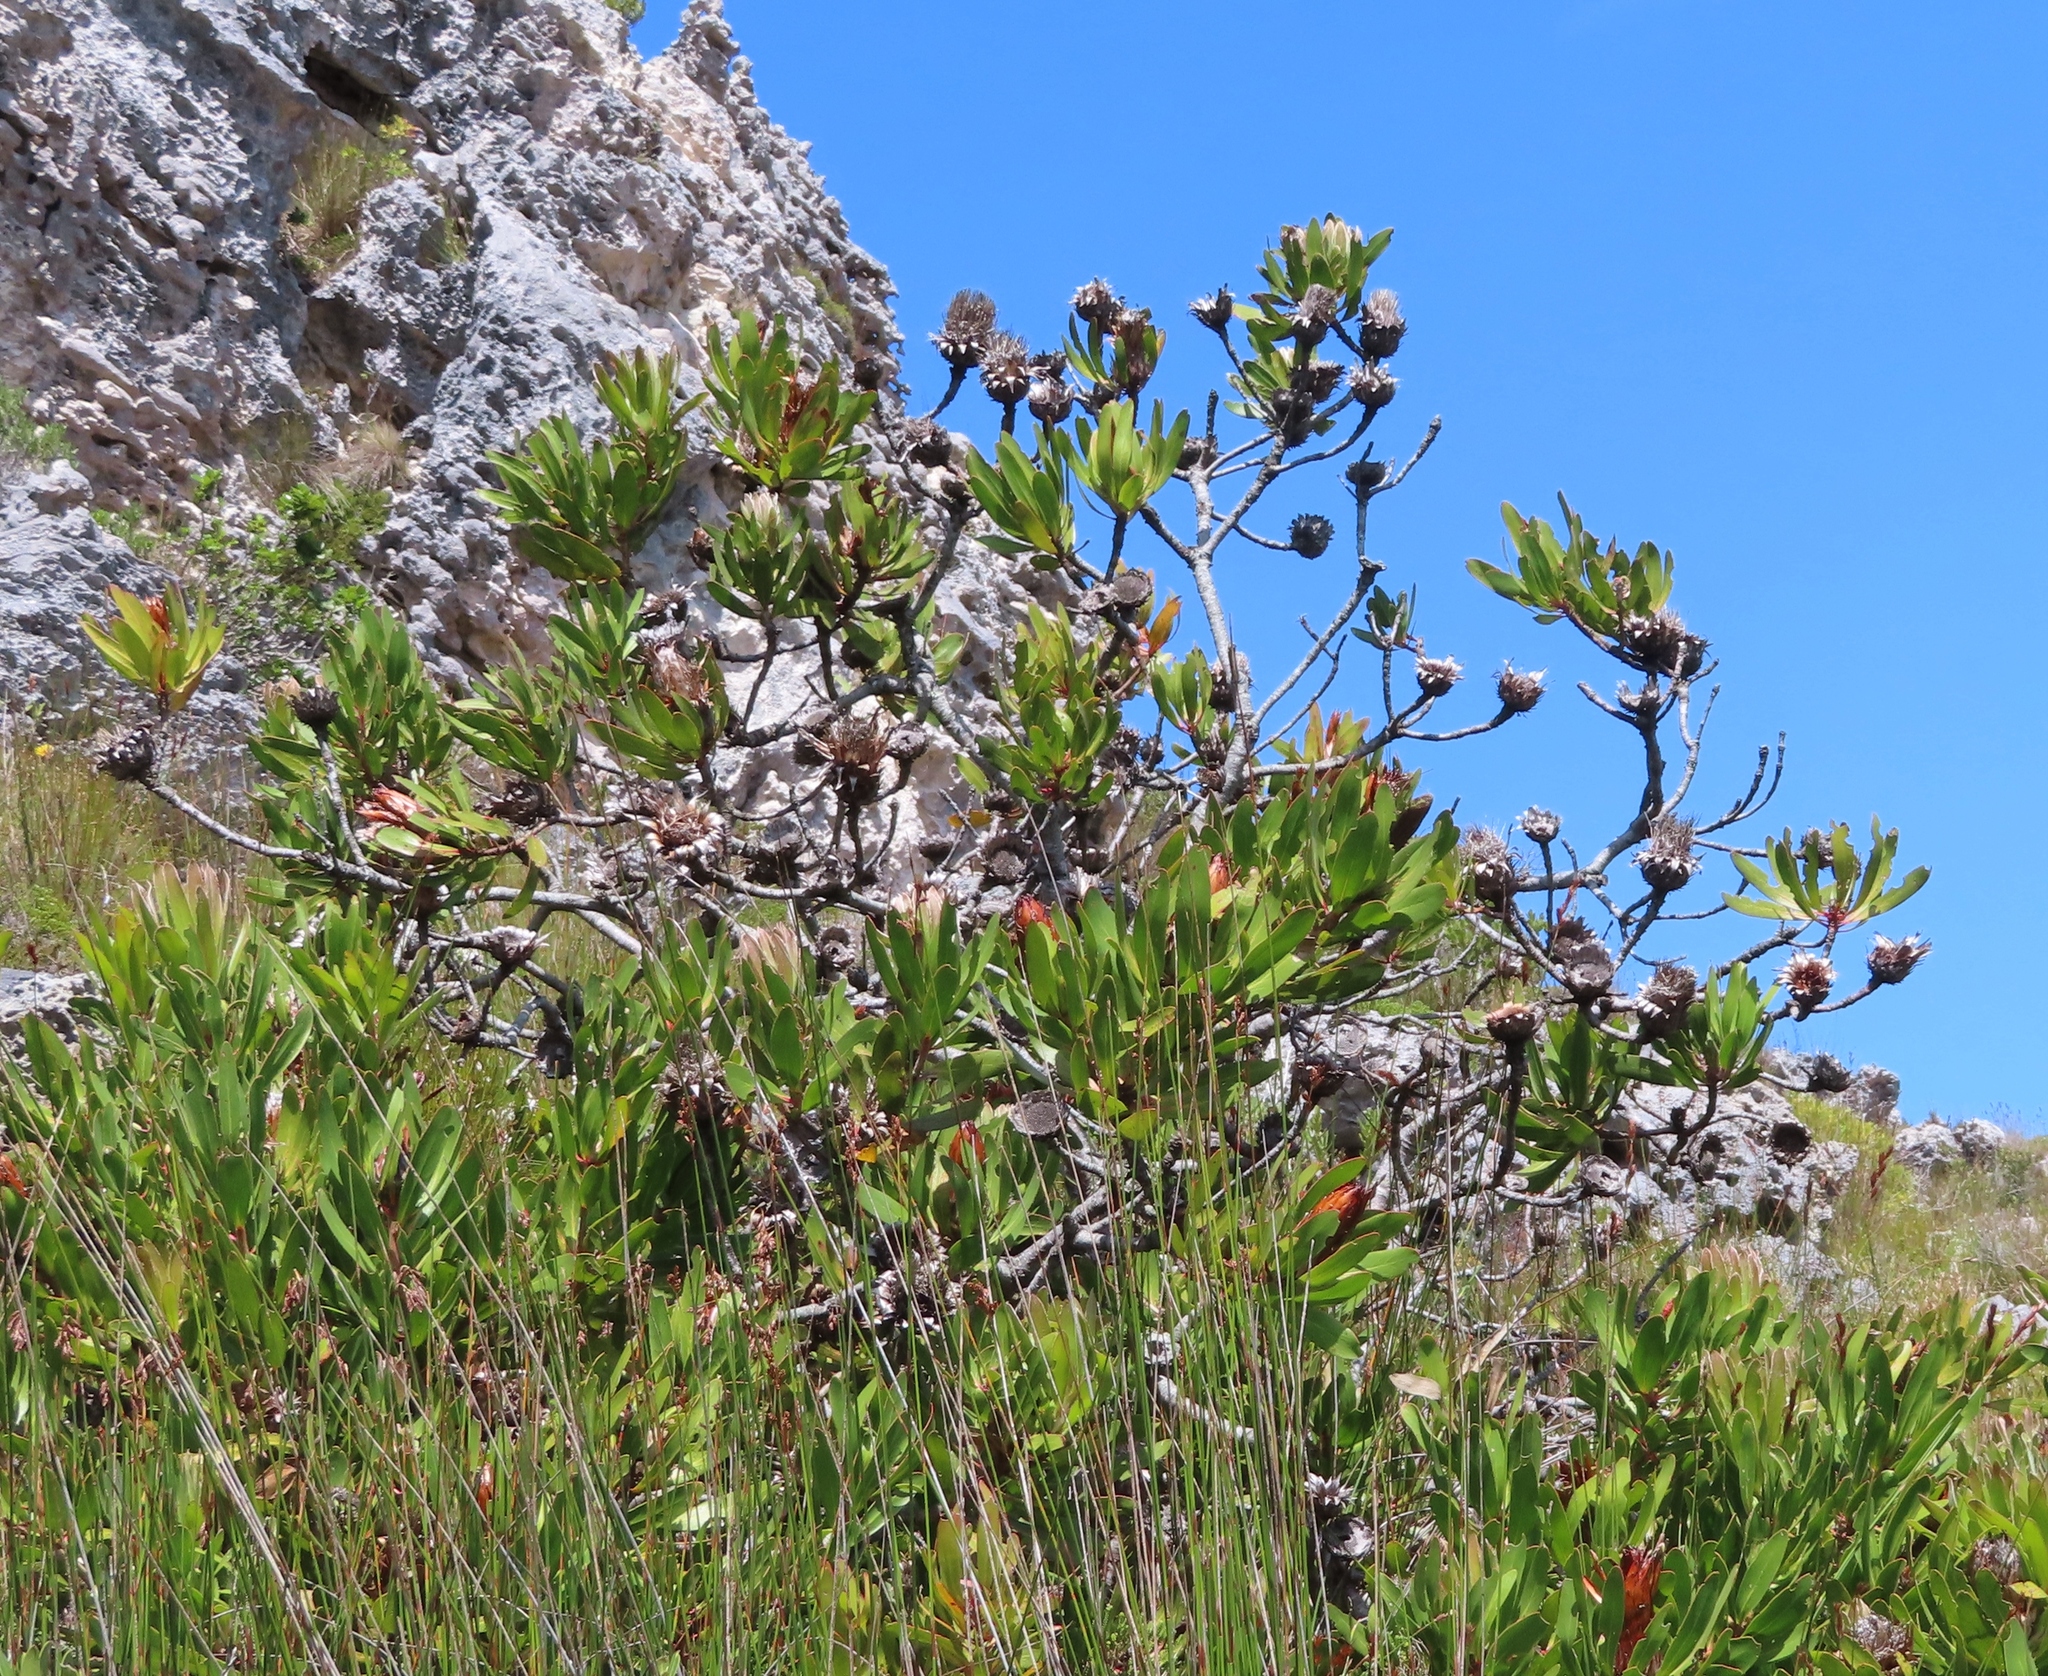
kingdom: Plantae
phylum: Tracheophyta
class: Magnoliopsida
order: Proteales
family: Proteaceae
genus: Protea
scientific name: Protea obtusifolia
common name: Bredasdorp sugarbush
